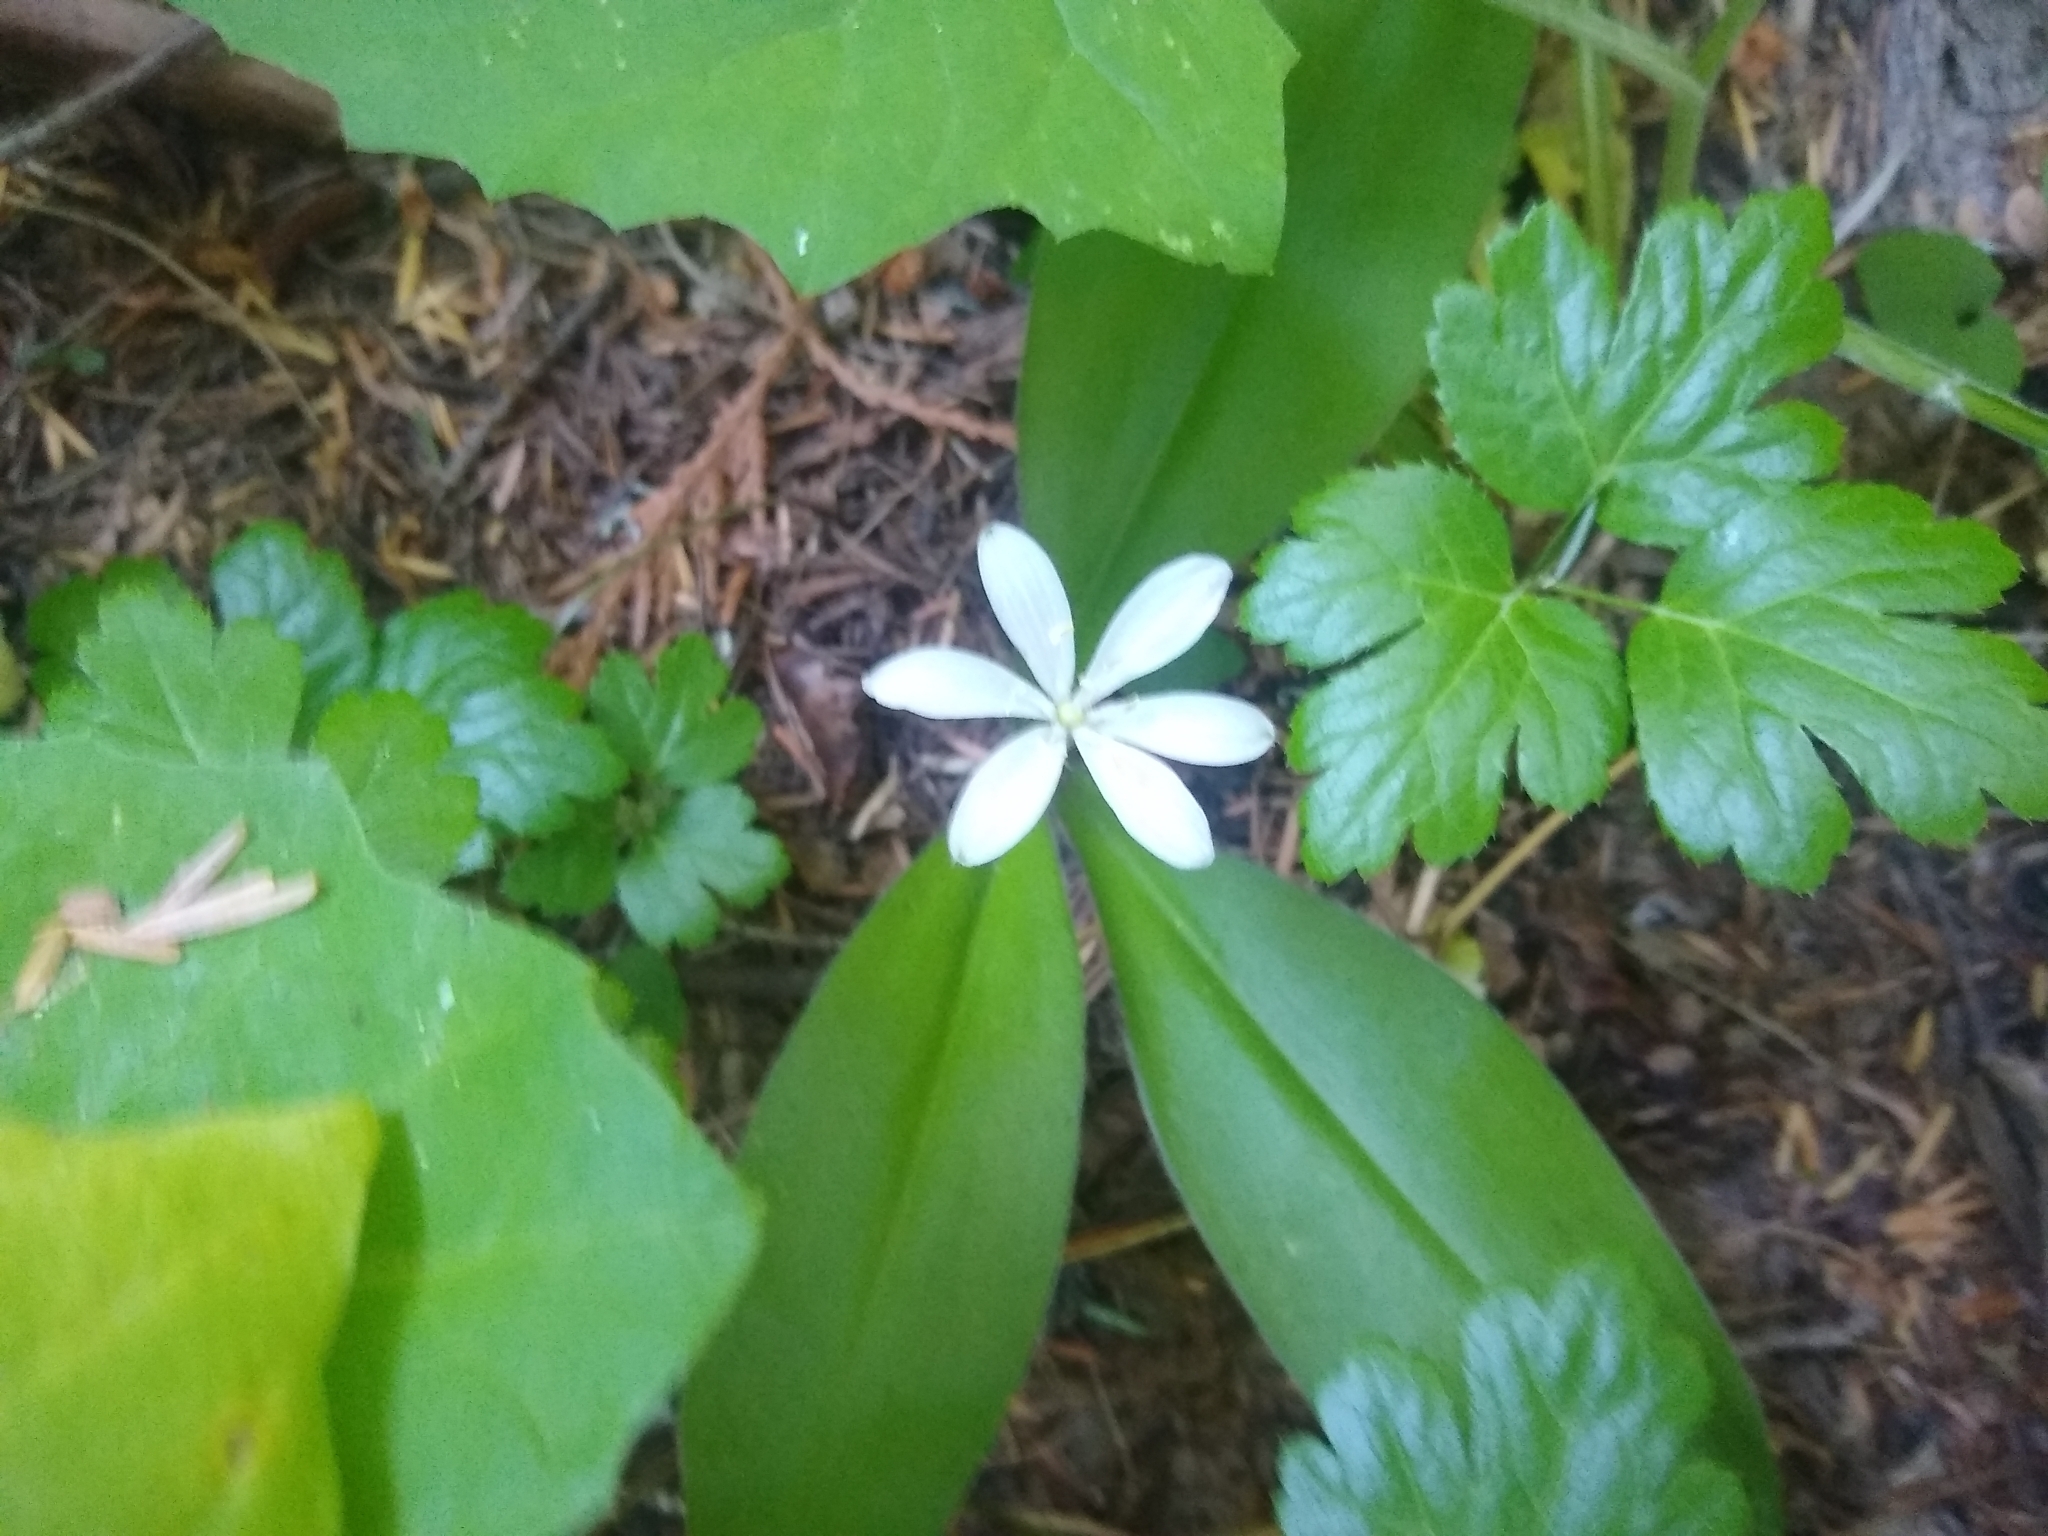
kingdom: Plantae
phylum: Tracheophyta
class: Liliopsida
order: Liliales
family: Liliaceae
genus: Clintonia
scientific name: Clintonia uniflora
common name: Queen's cup
